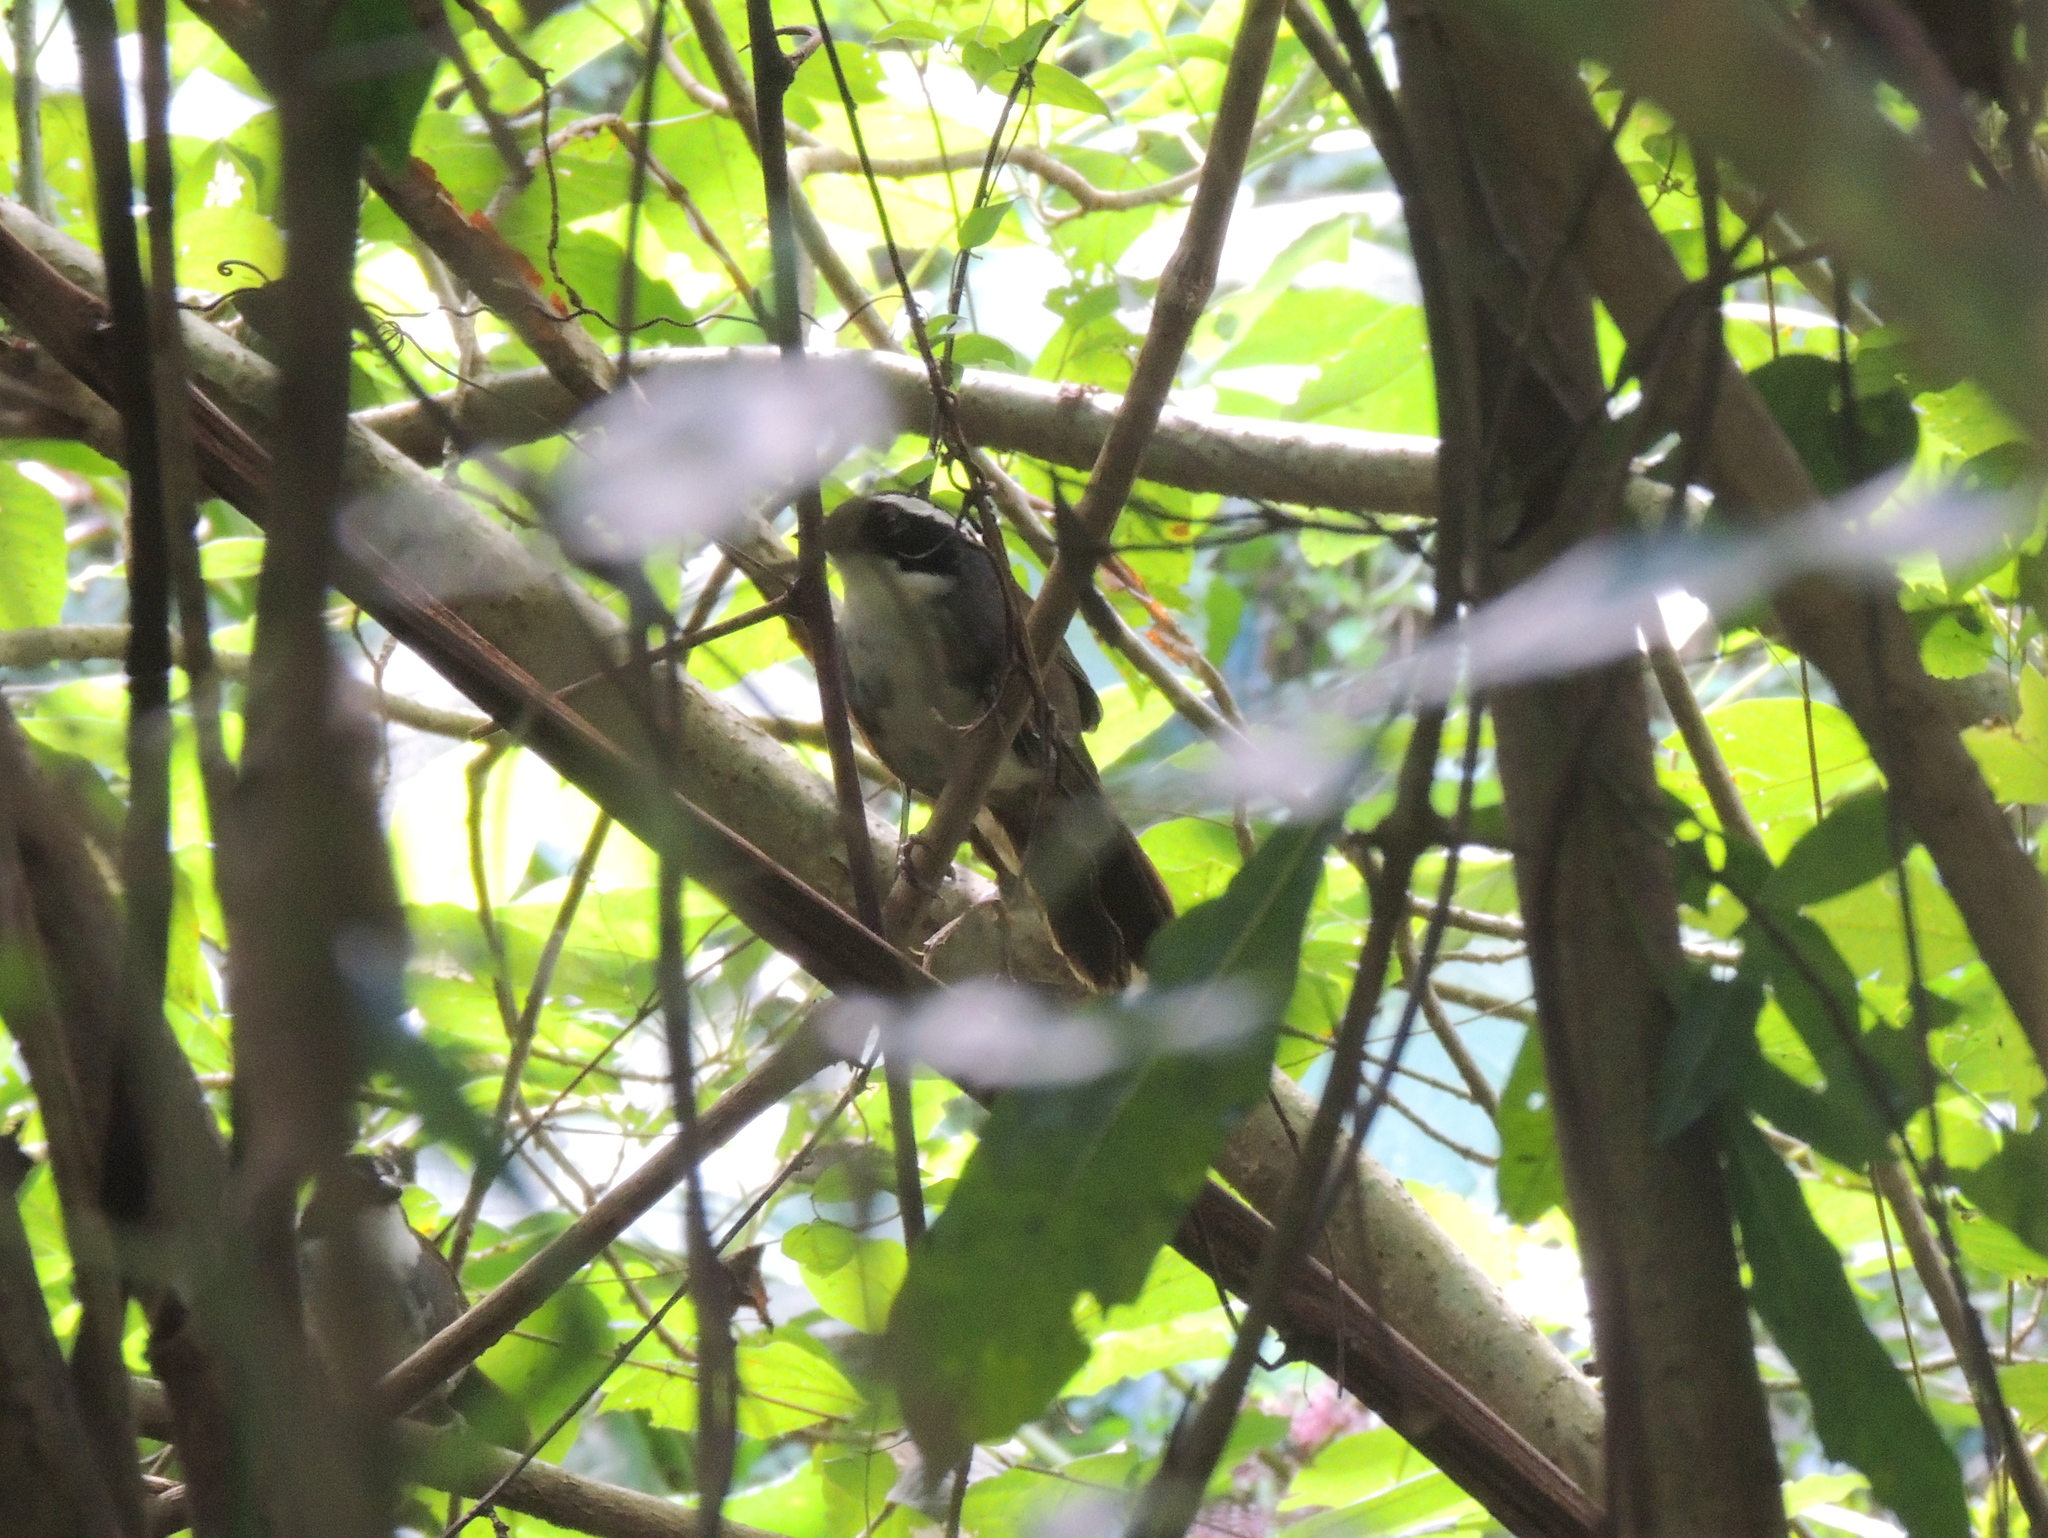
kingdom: Animalia
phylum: Chordata
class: Aves
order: Passeriformes
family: Passerellidae
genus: Arremon
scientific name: Arremon torquatus
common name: White-browed brushfinch
